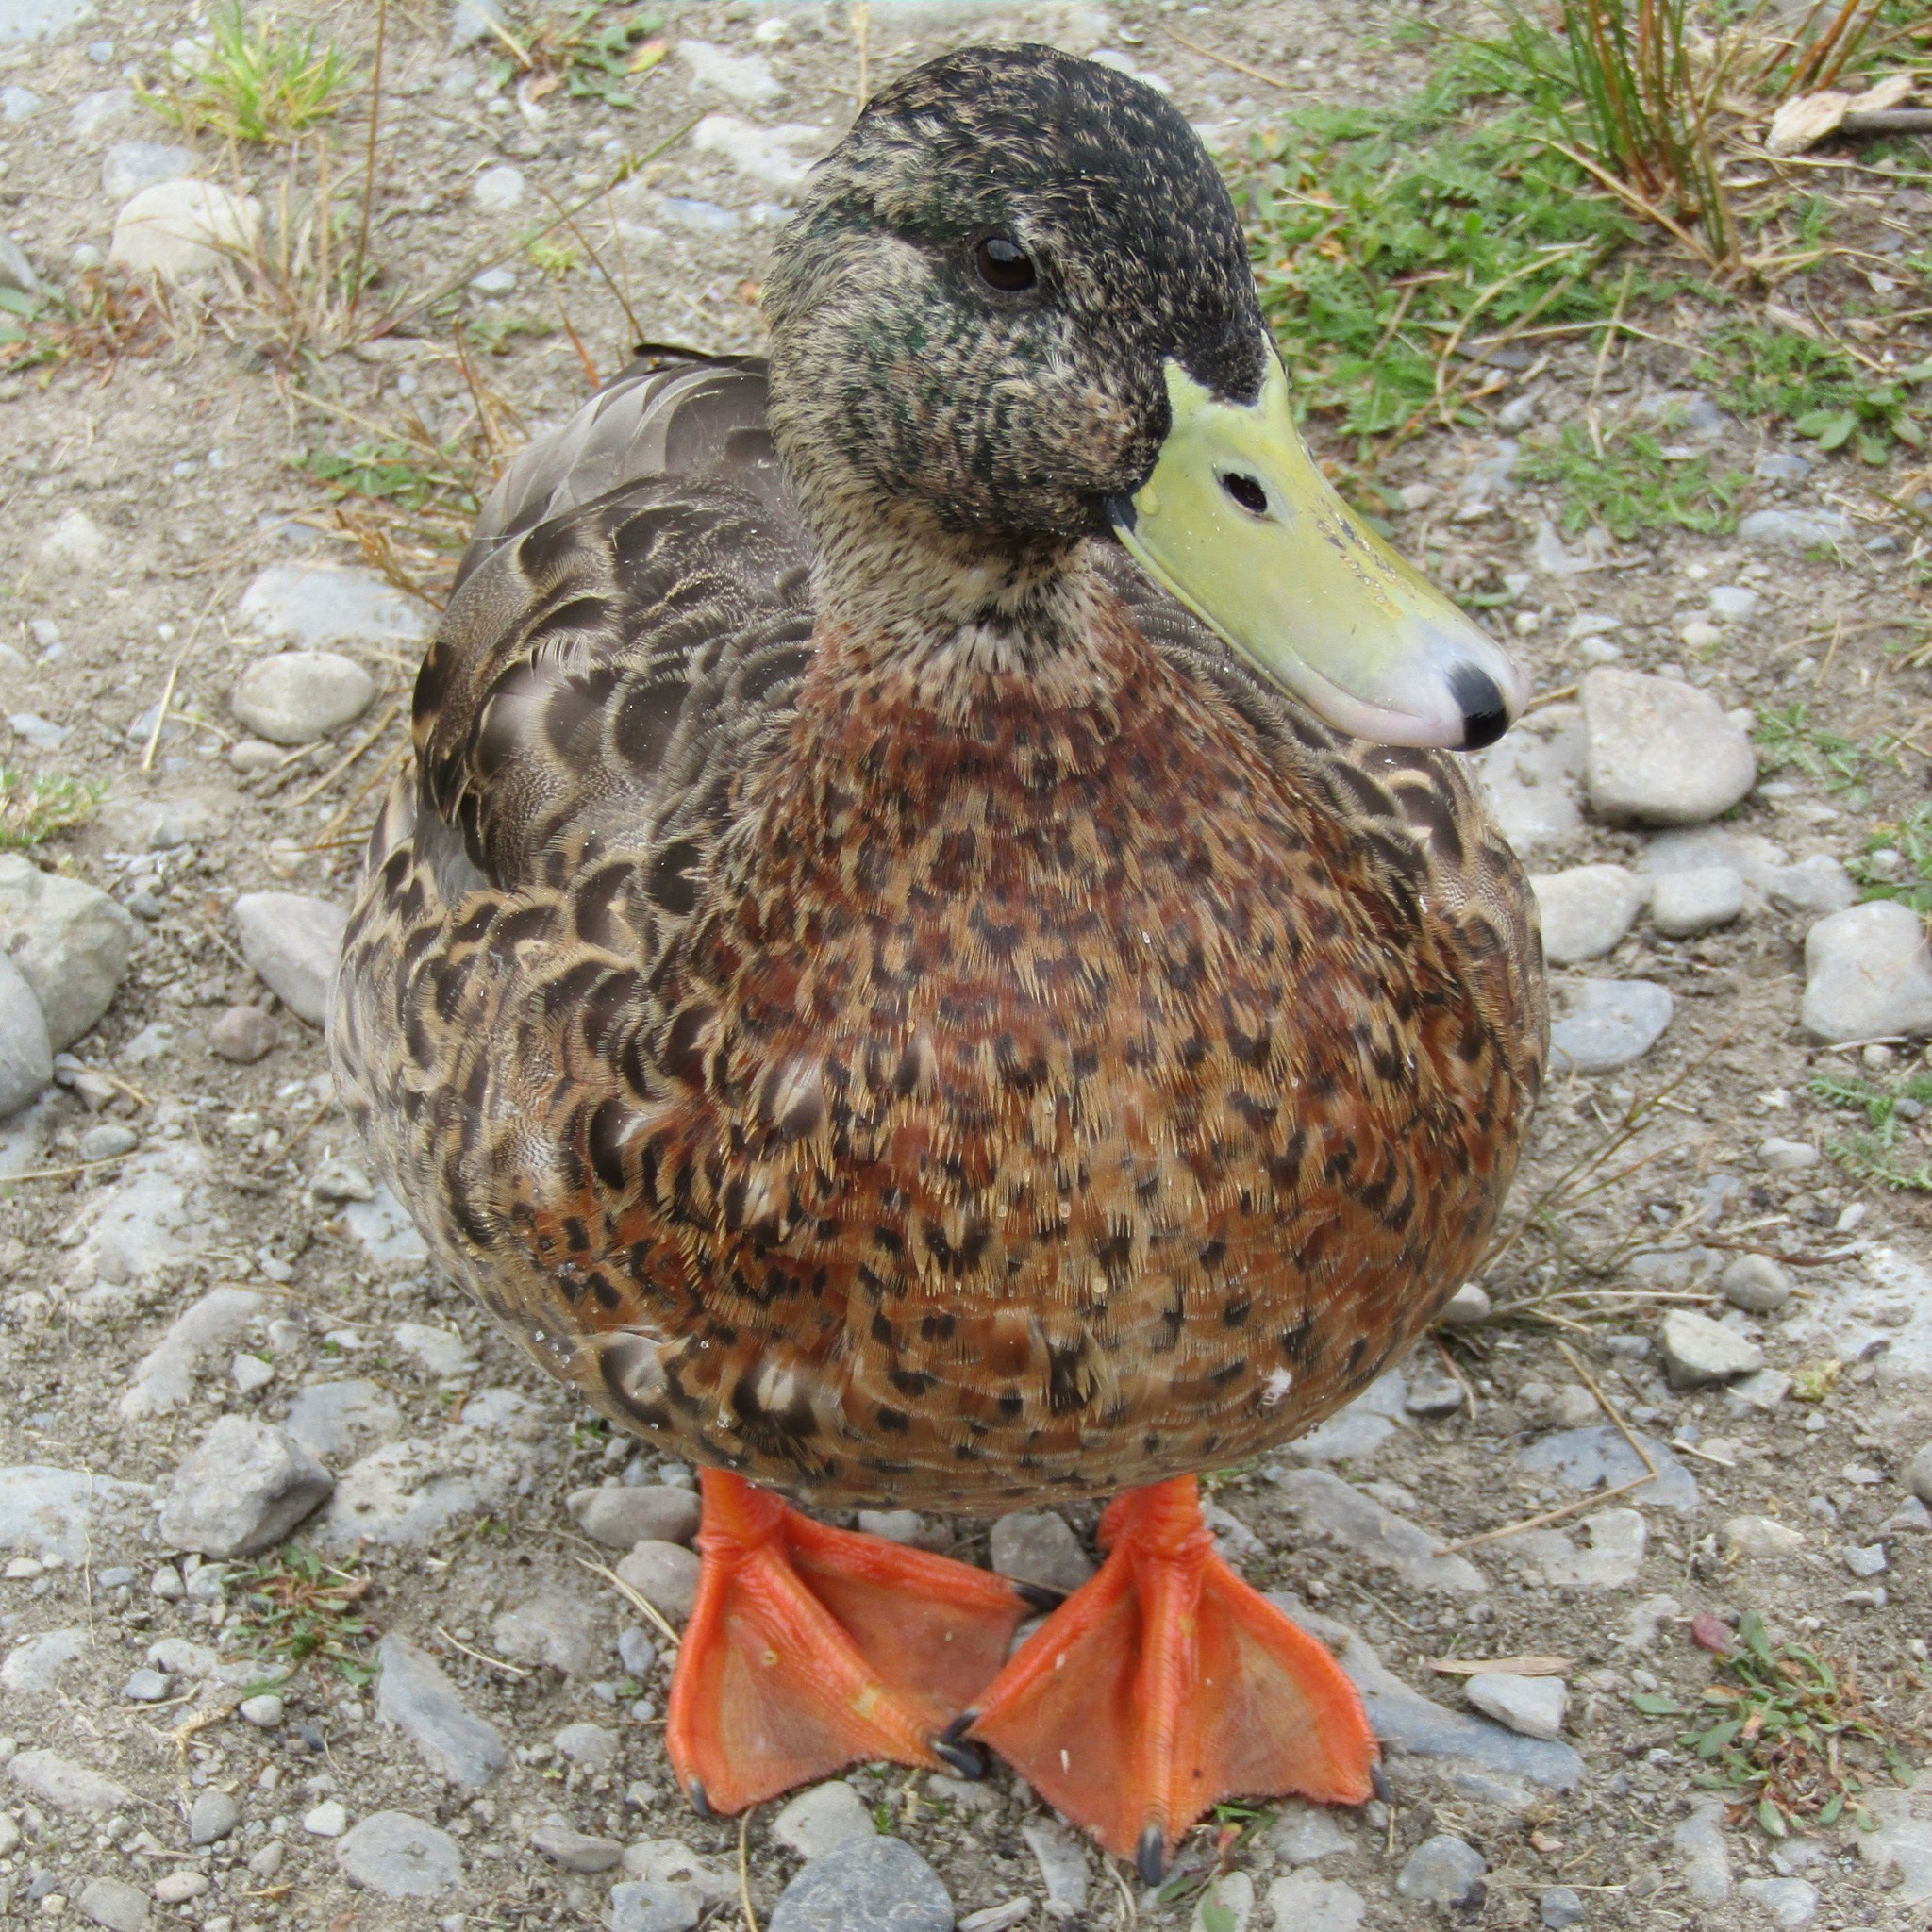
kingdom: Animalia
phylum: Chordata
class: Aves
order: Anseriformes
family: Anatidae
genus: Anas
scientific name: Anas platyrhynchos
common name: Mallard
